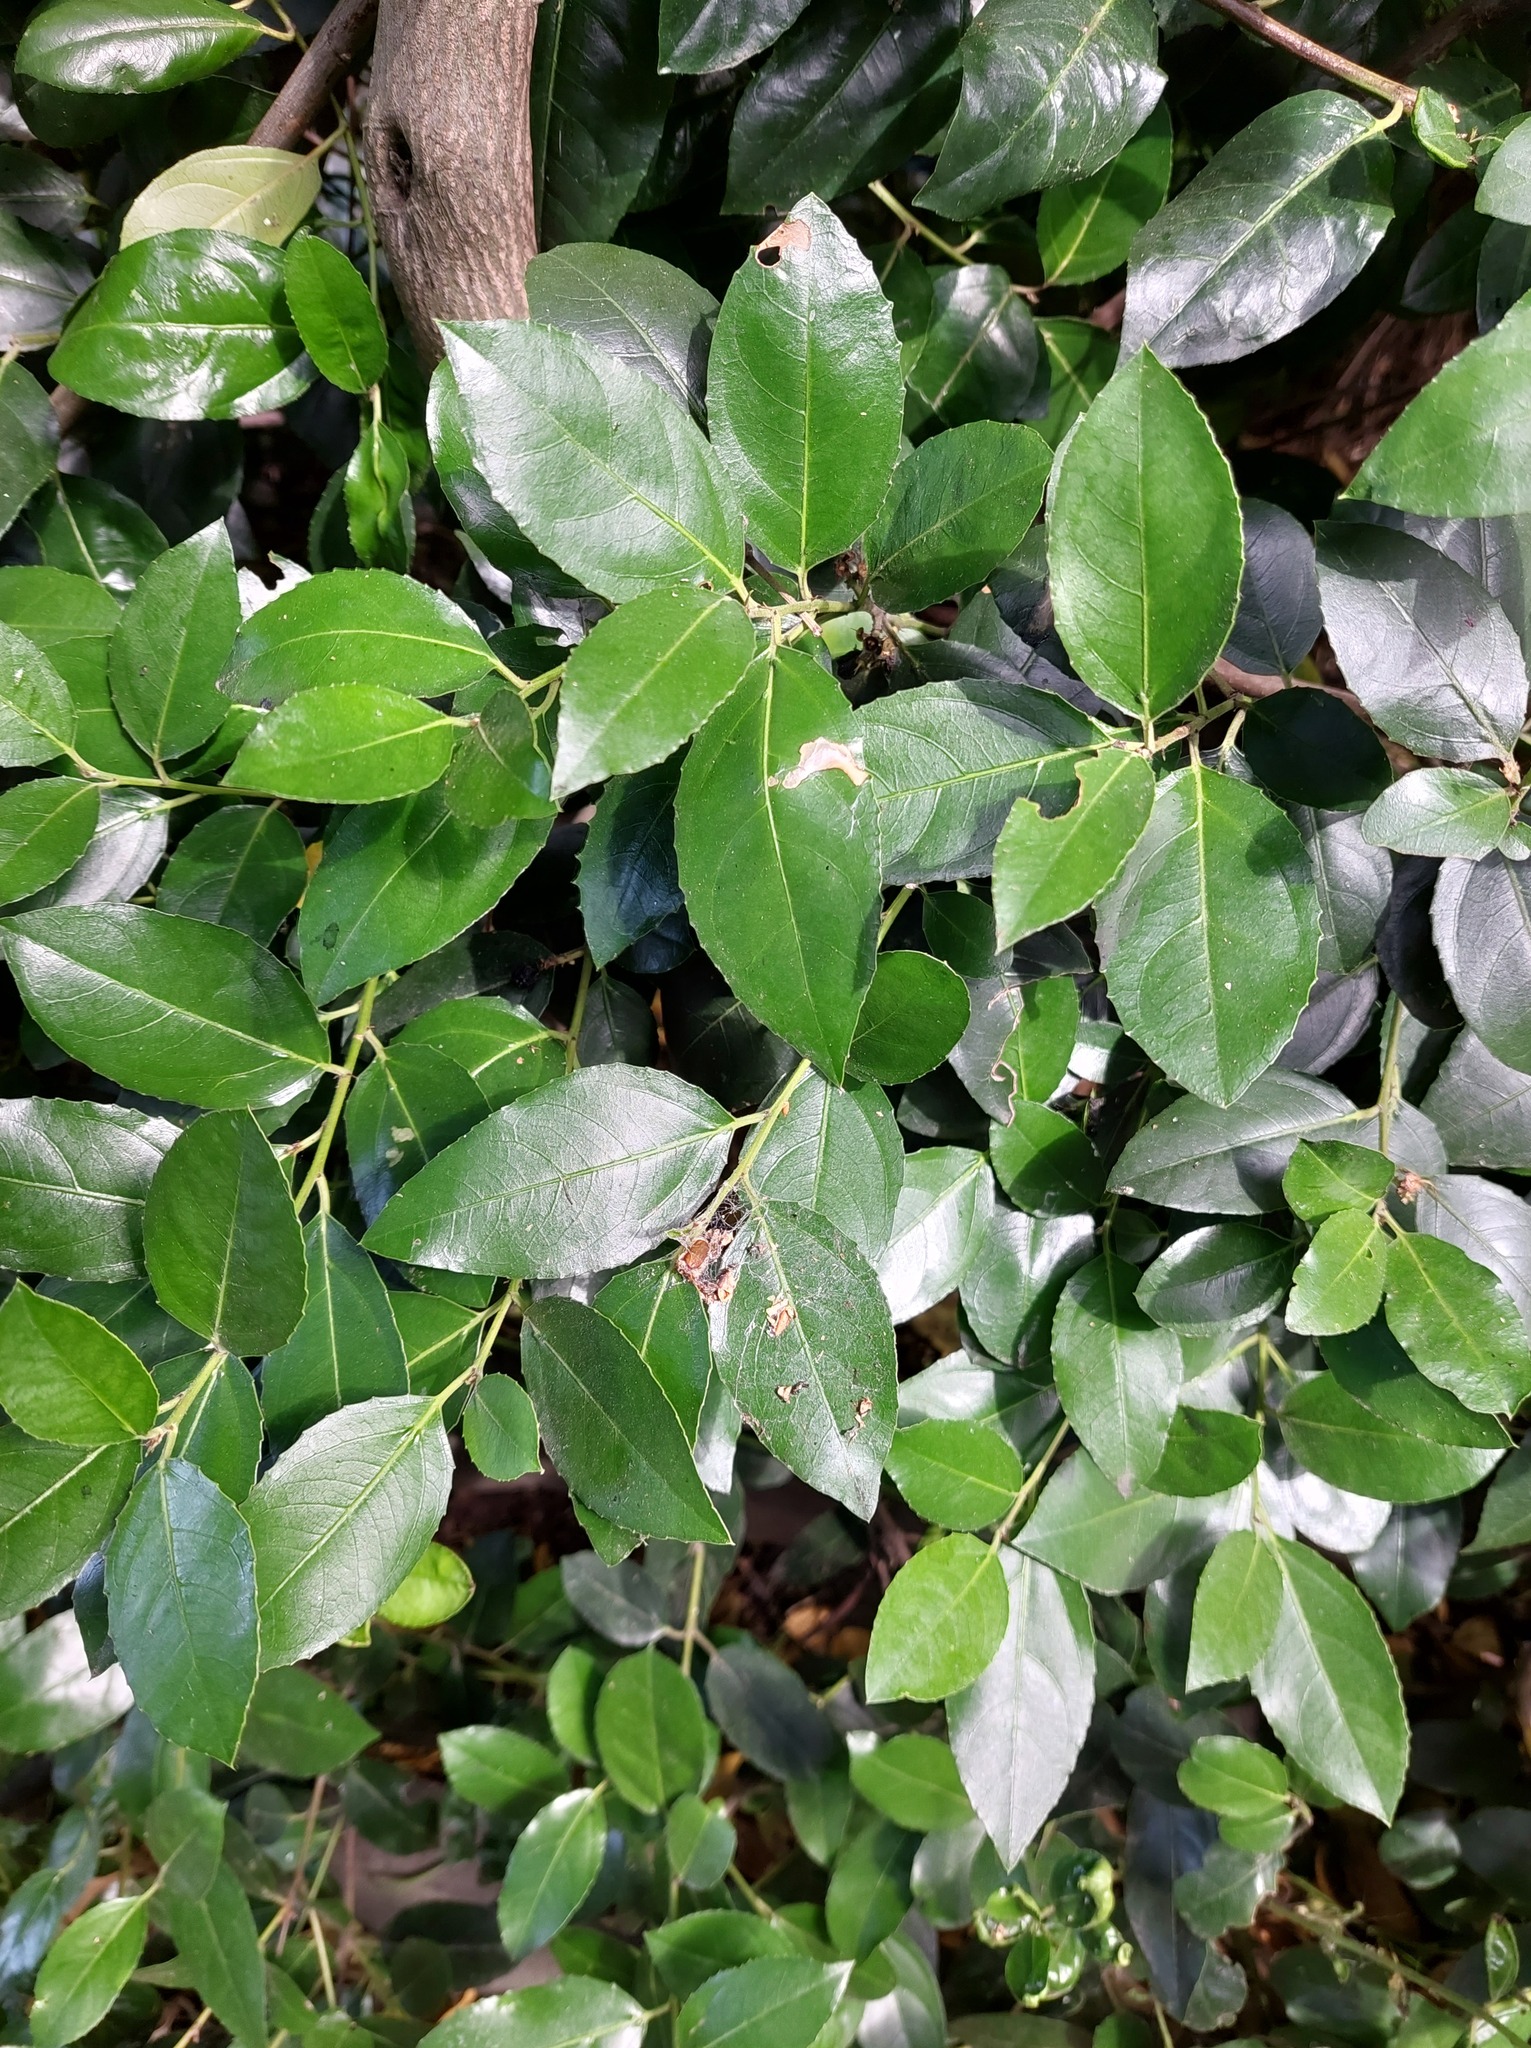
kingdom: Plantae
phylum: Tracheophyta
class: Magnoliopsida
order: Rosales
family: Rhamnaceae
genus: Rhamnus
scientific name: Rhamnus alaternus
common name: Mediterranean buckthorn
